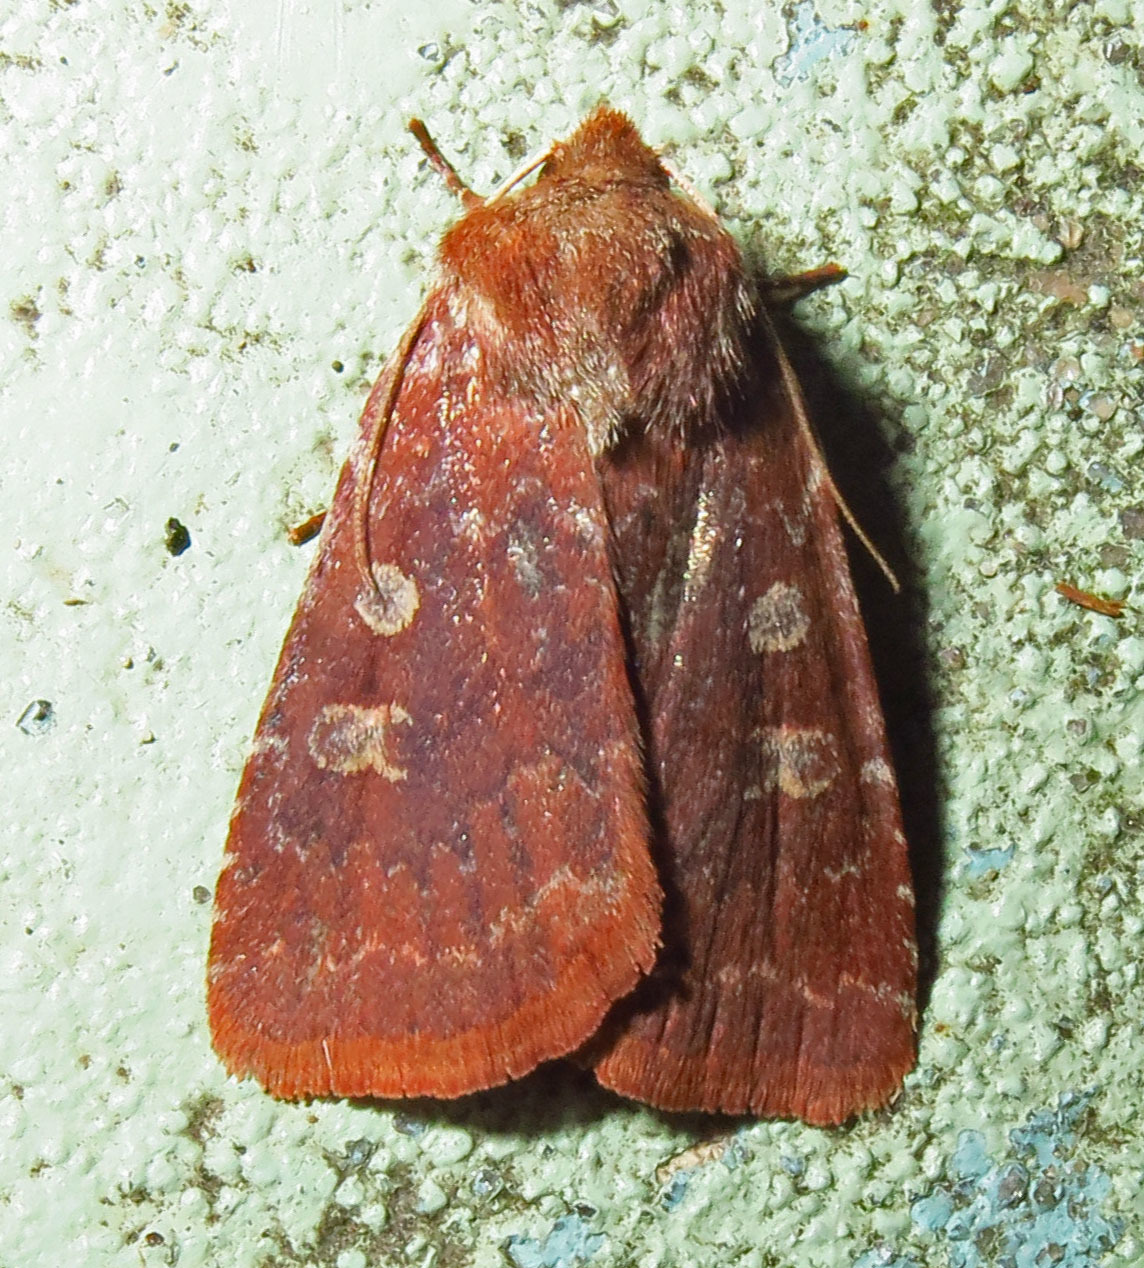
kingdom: Animalia
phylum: Arthropoda
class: Insecta
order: Lepidoptera
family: Noctuidae
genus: Cerastis
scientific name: Cerastis tenebrifera
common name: Reddish speckled dart
